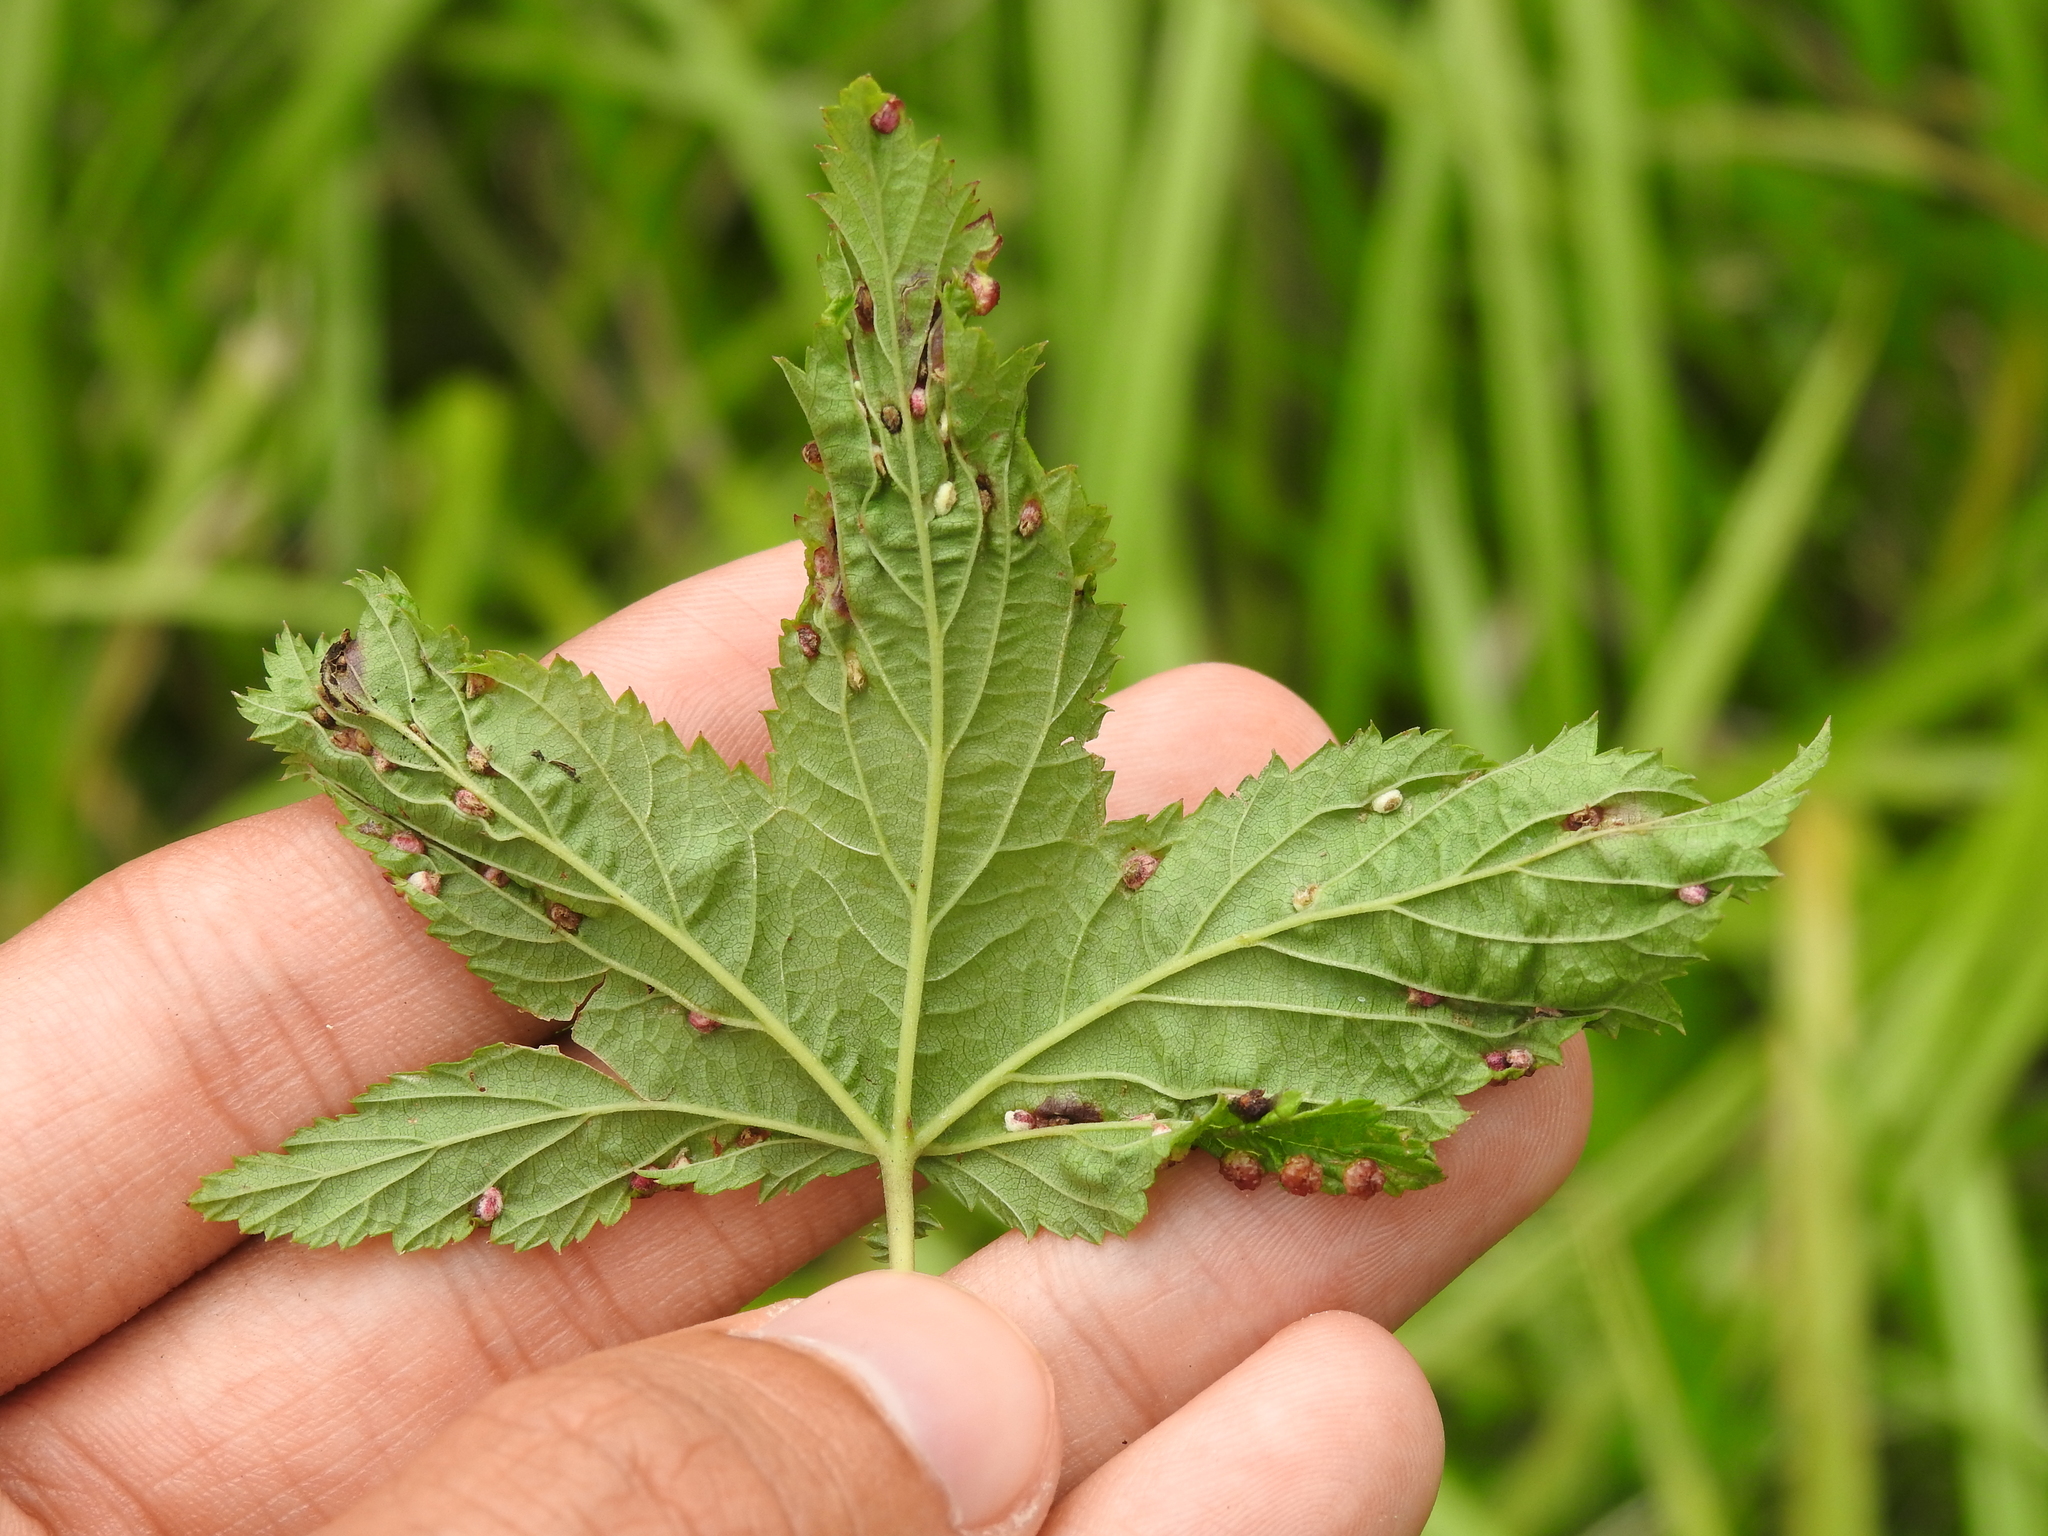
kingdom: Animalia
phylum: Arthropoda
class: Insecta
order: Diptera
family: Cecidomyiidae
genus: Dasineura
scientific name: Dasineura ulmaria
